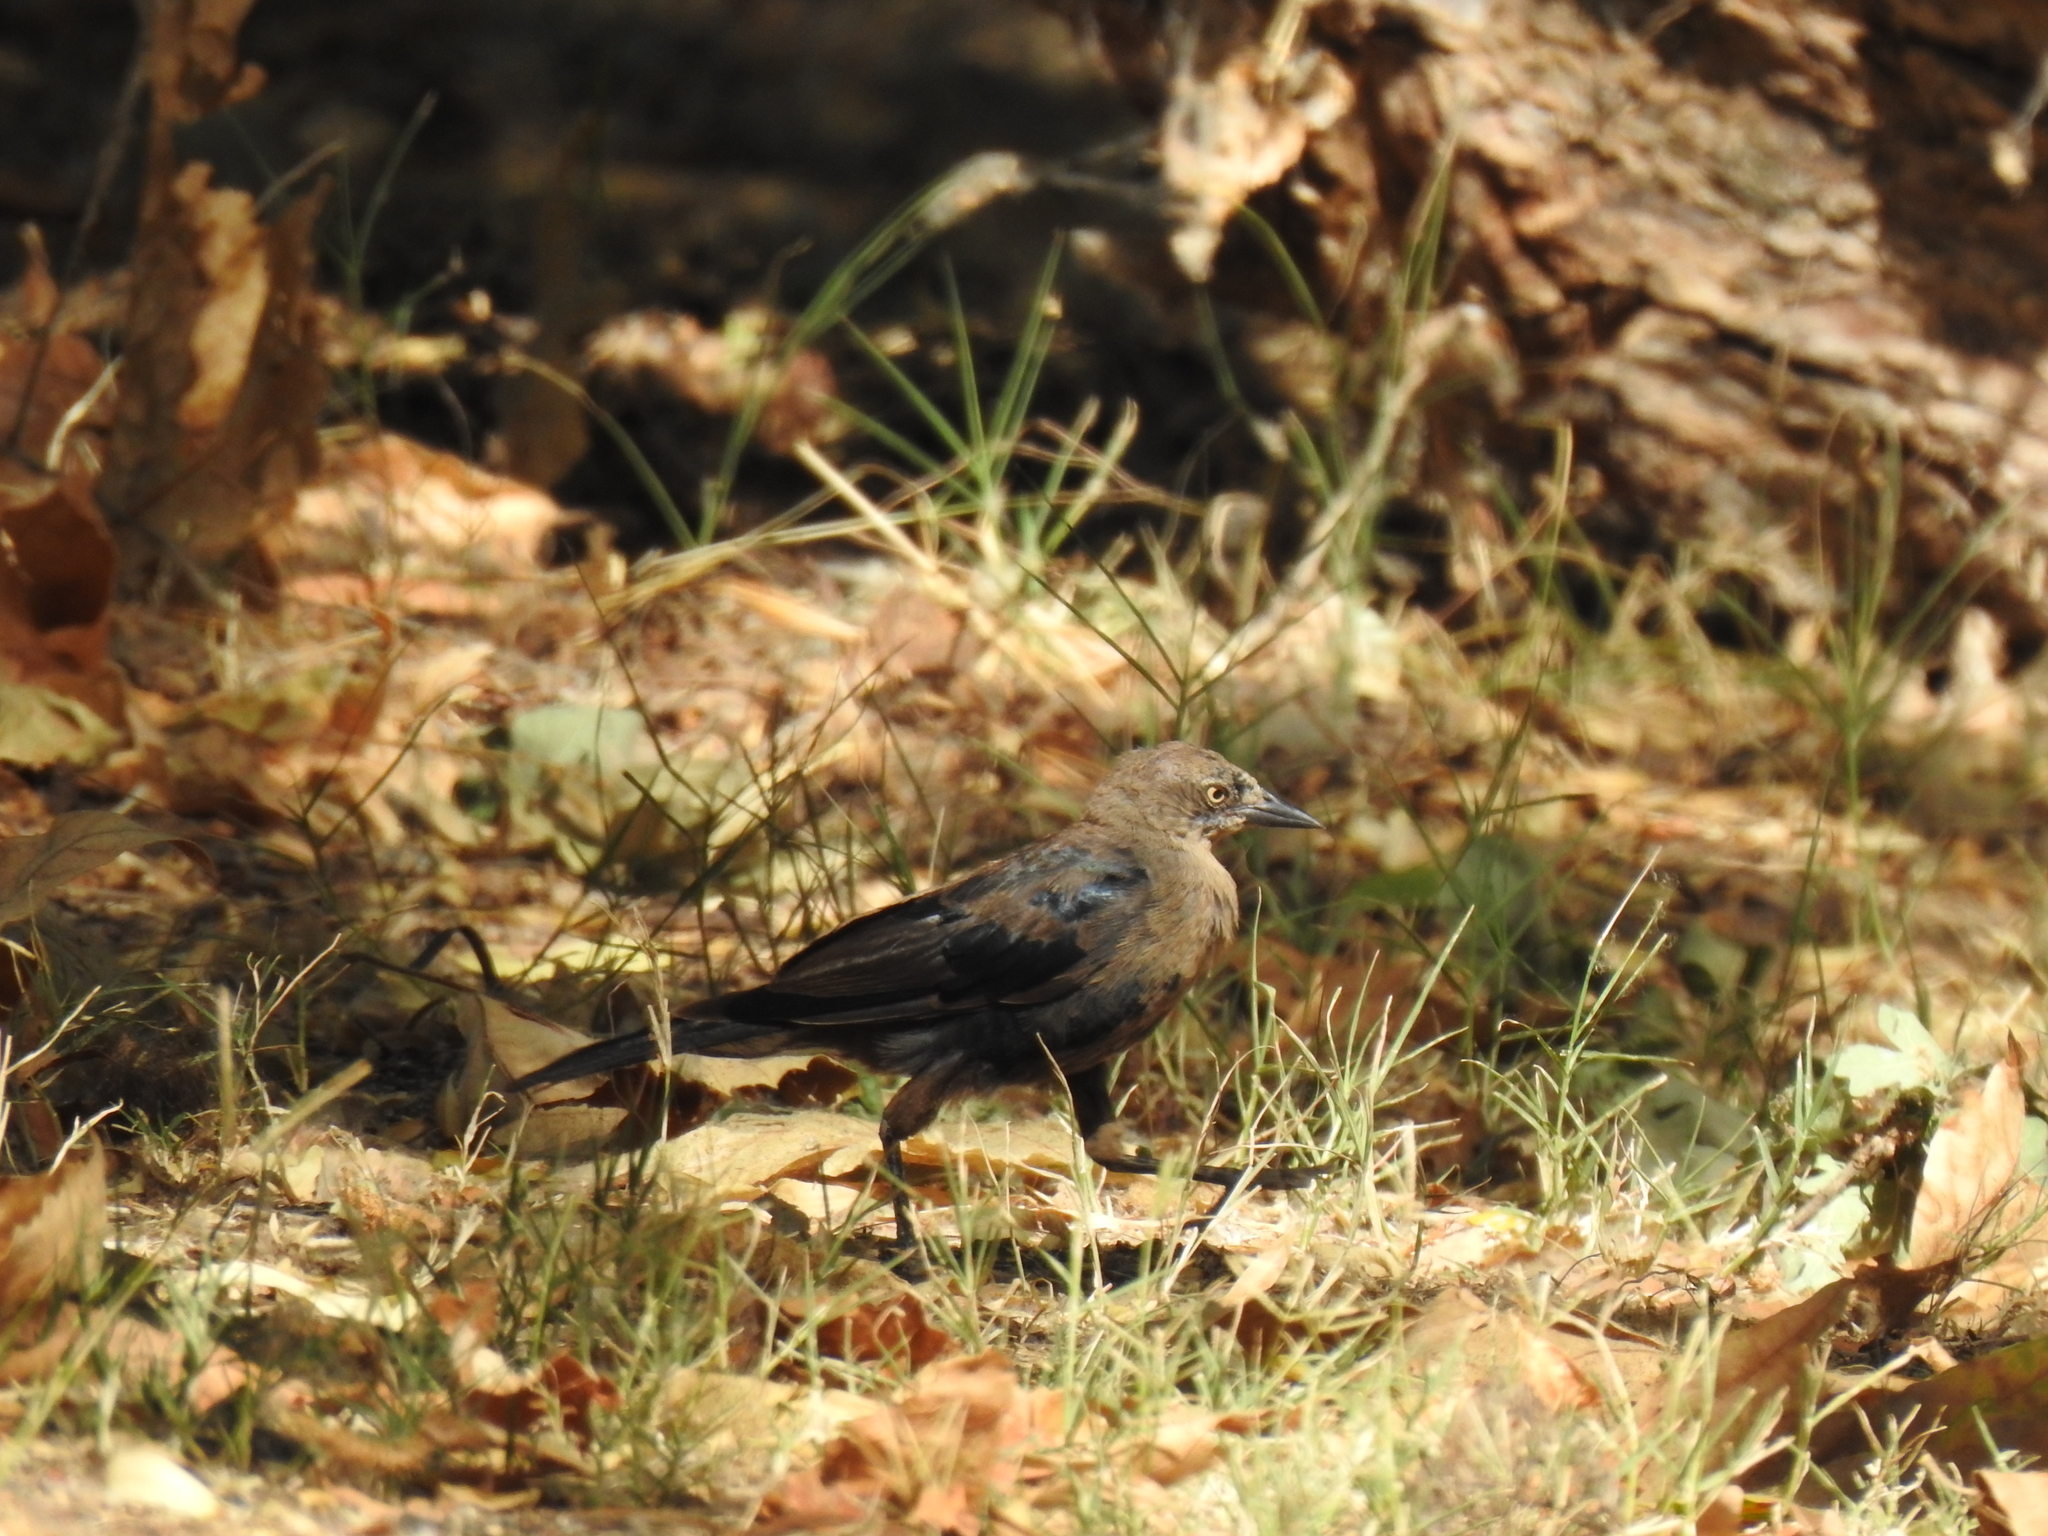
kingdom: Animalia
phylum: Chordata
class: Aves
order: Passeriformes
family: Icteridae
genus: Euphagus
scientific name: Euphagus cyanocephalus
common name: Brewer's blackbird
